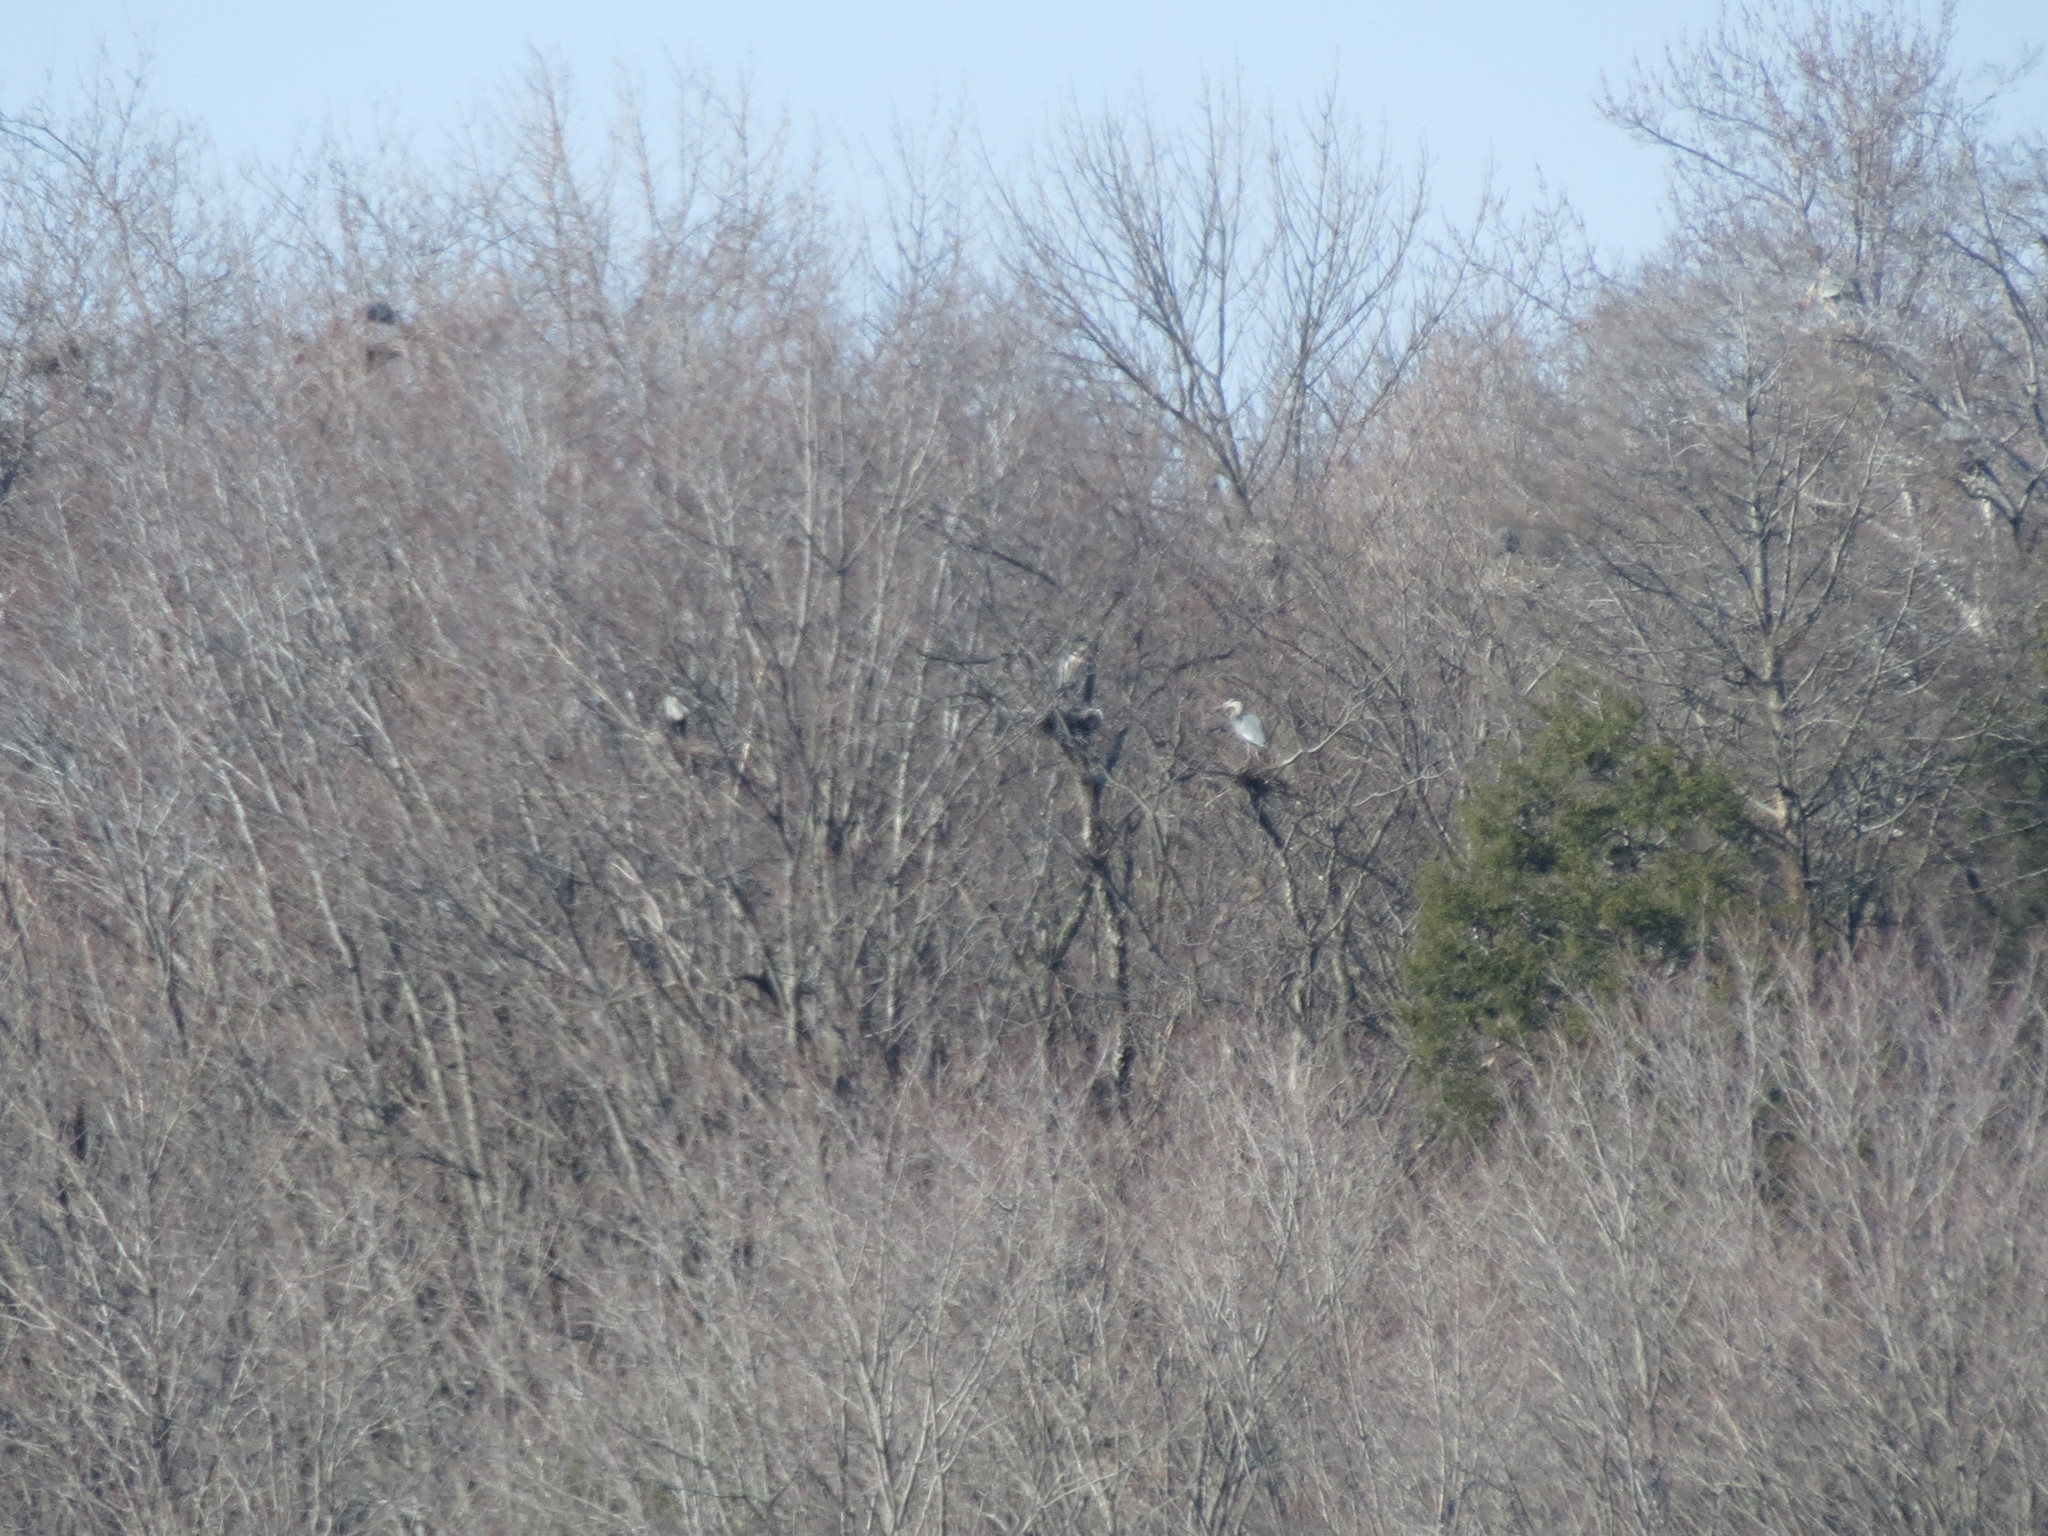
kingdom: Animalia
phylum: Chordata
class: Aves
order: Pelecaniformes
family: Ardeidae
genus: Ardea
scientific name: Ardea herodias
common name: Great blue heron
